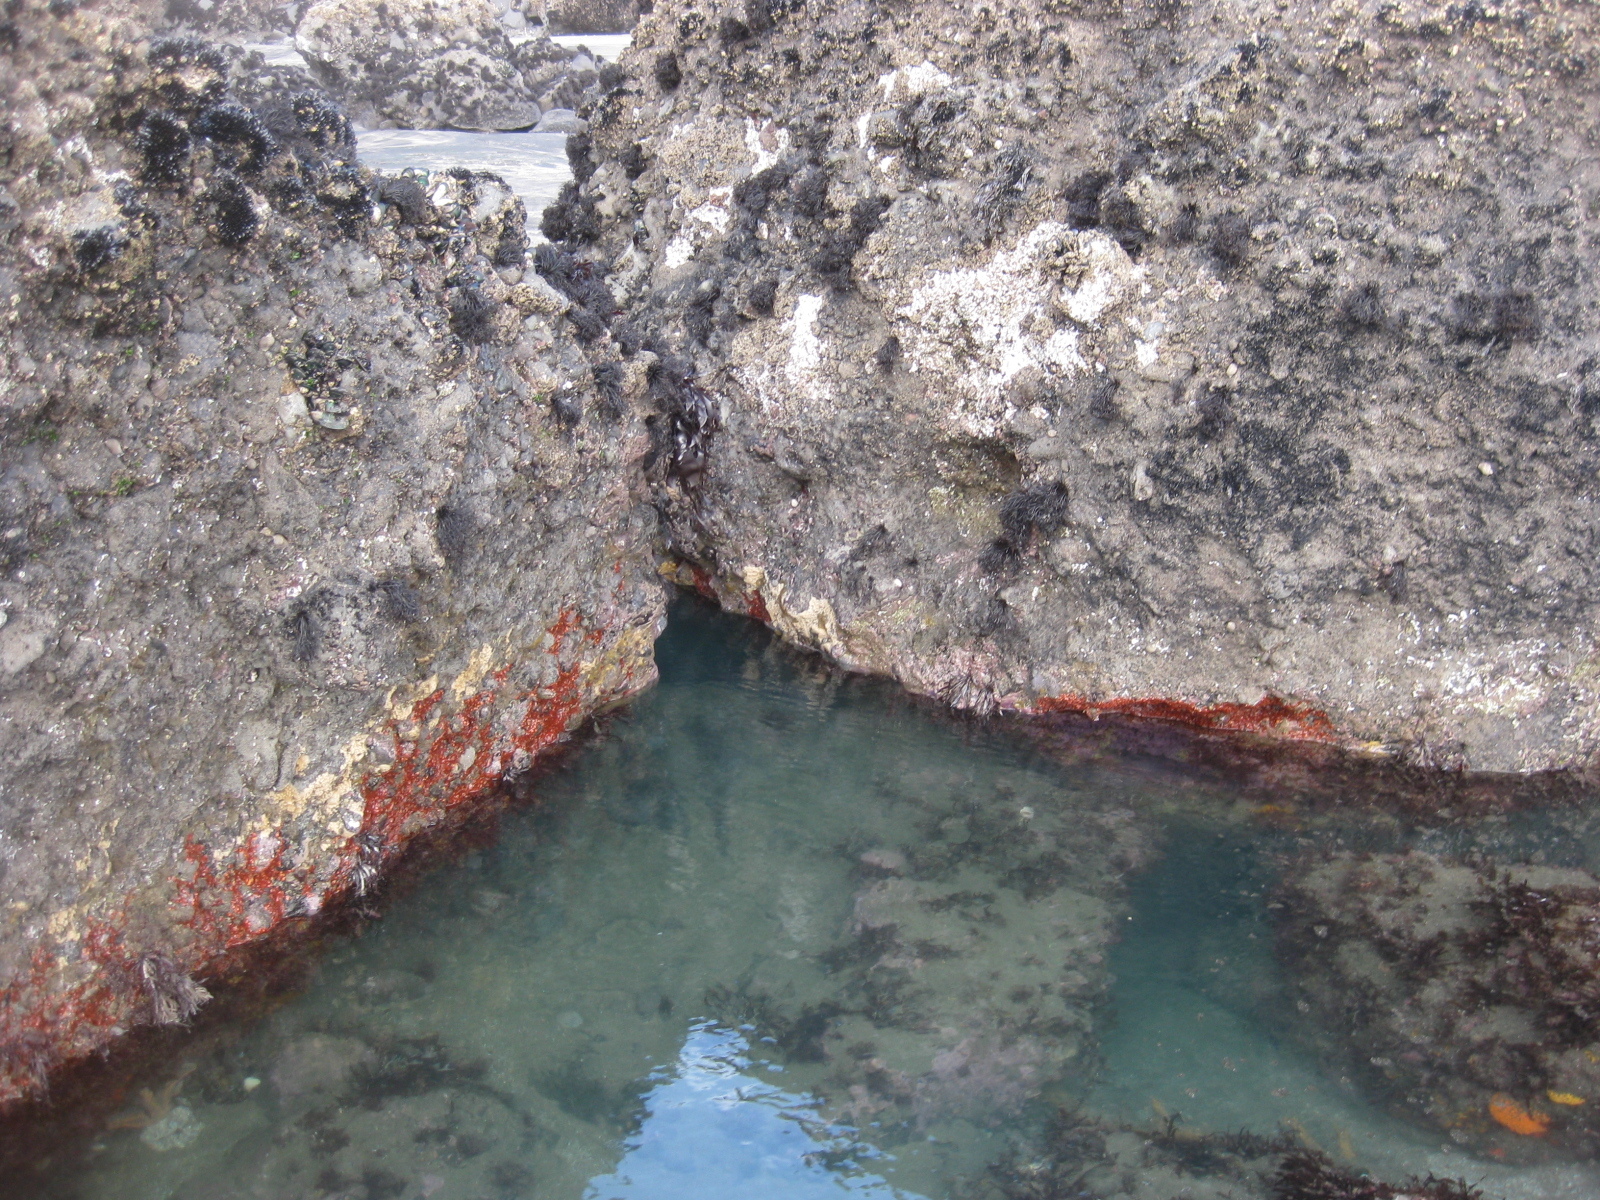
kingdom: Animalia
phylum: Cnidaria
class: Anthozoa
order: Corallimorpharia
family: Corallimorphidae
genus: Corynactis
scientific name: Corynactis australis
